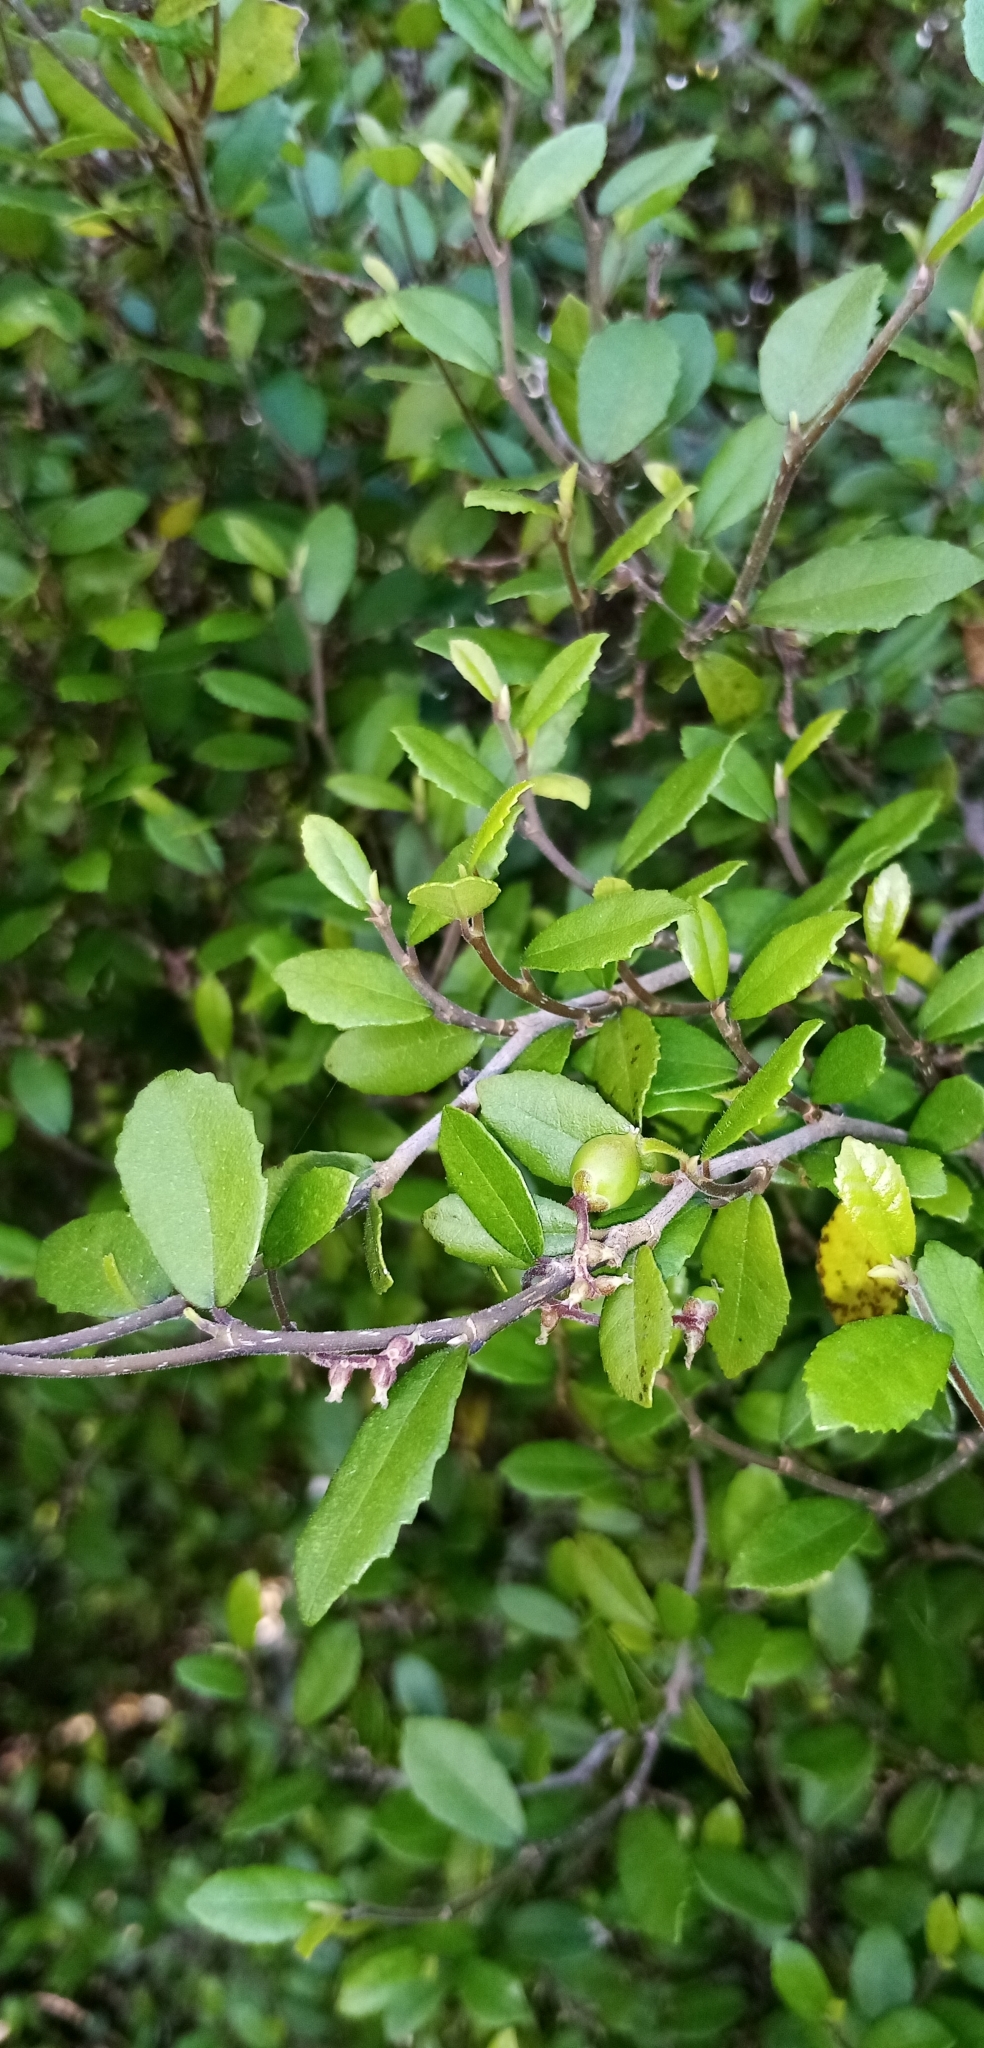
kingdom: Plantae
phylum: Tracheophyta
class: Magnoliopsida
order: Rosales
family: Moraceae
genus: Paratrophis
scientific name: Paratrophis microphylla
